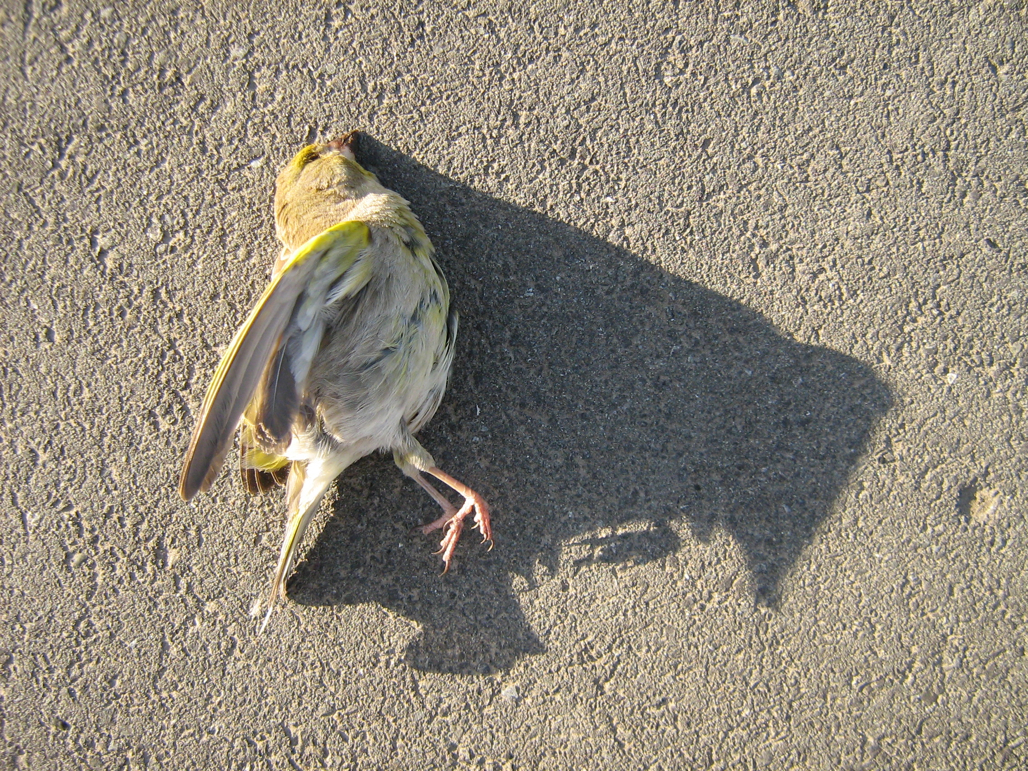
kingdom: Plantae
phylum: Tracheophyta
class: Liliopsida
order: Poales
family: Poaceae
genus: Chloris
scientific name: Chloris chloris
